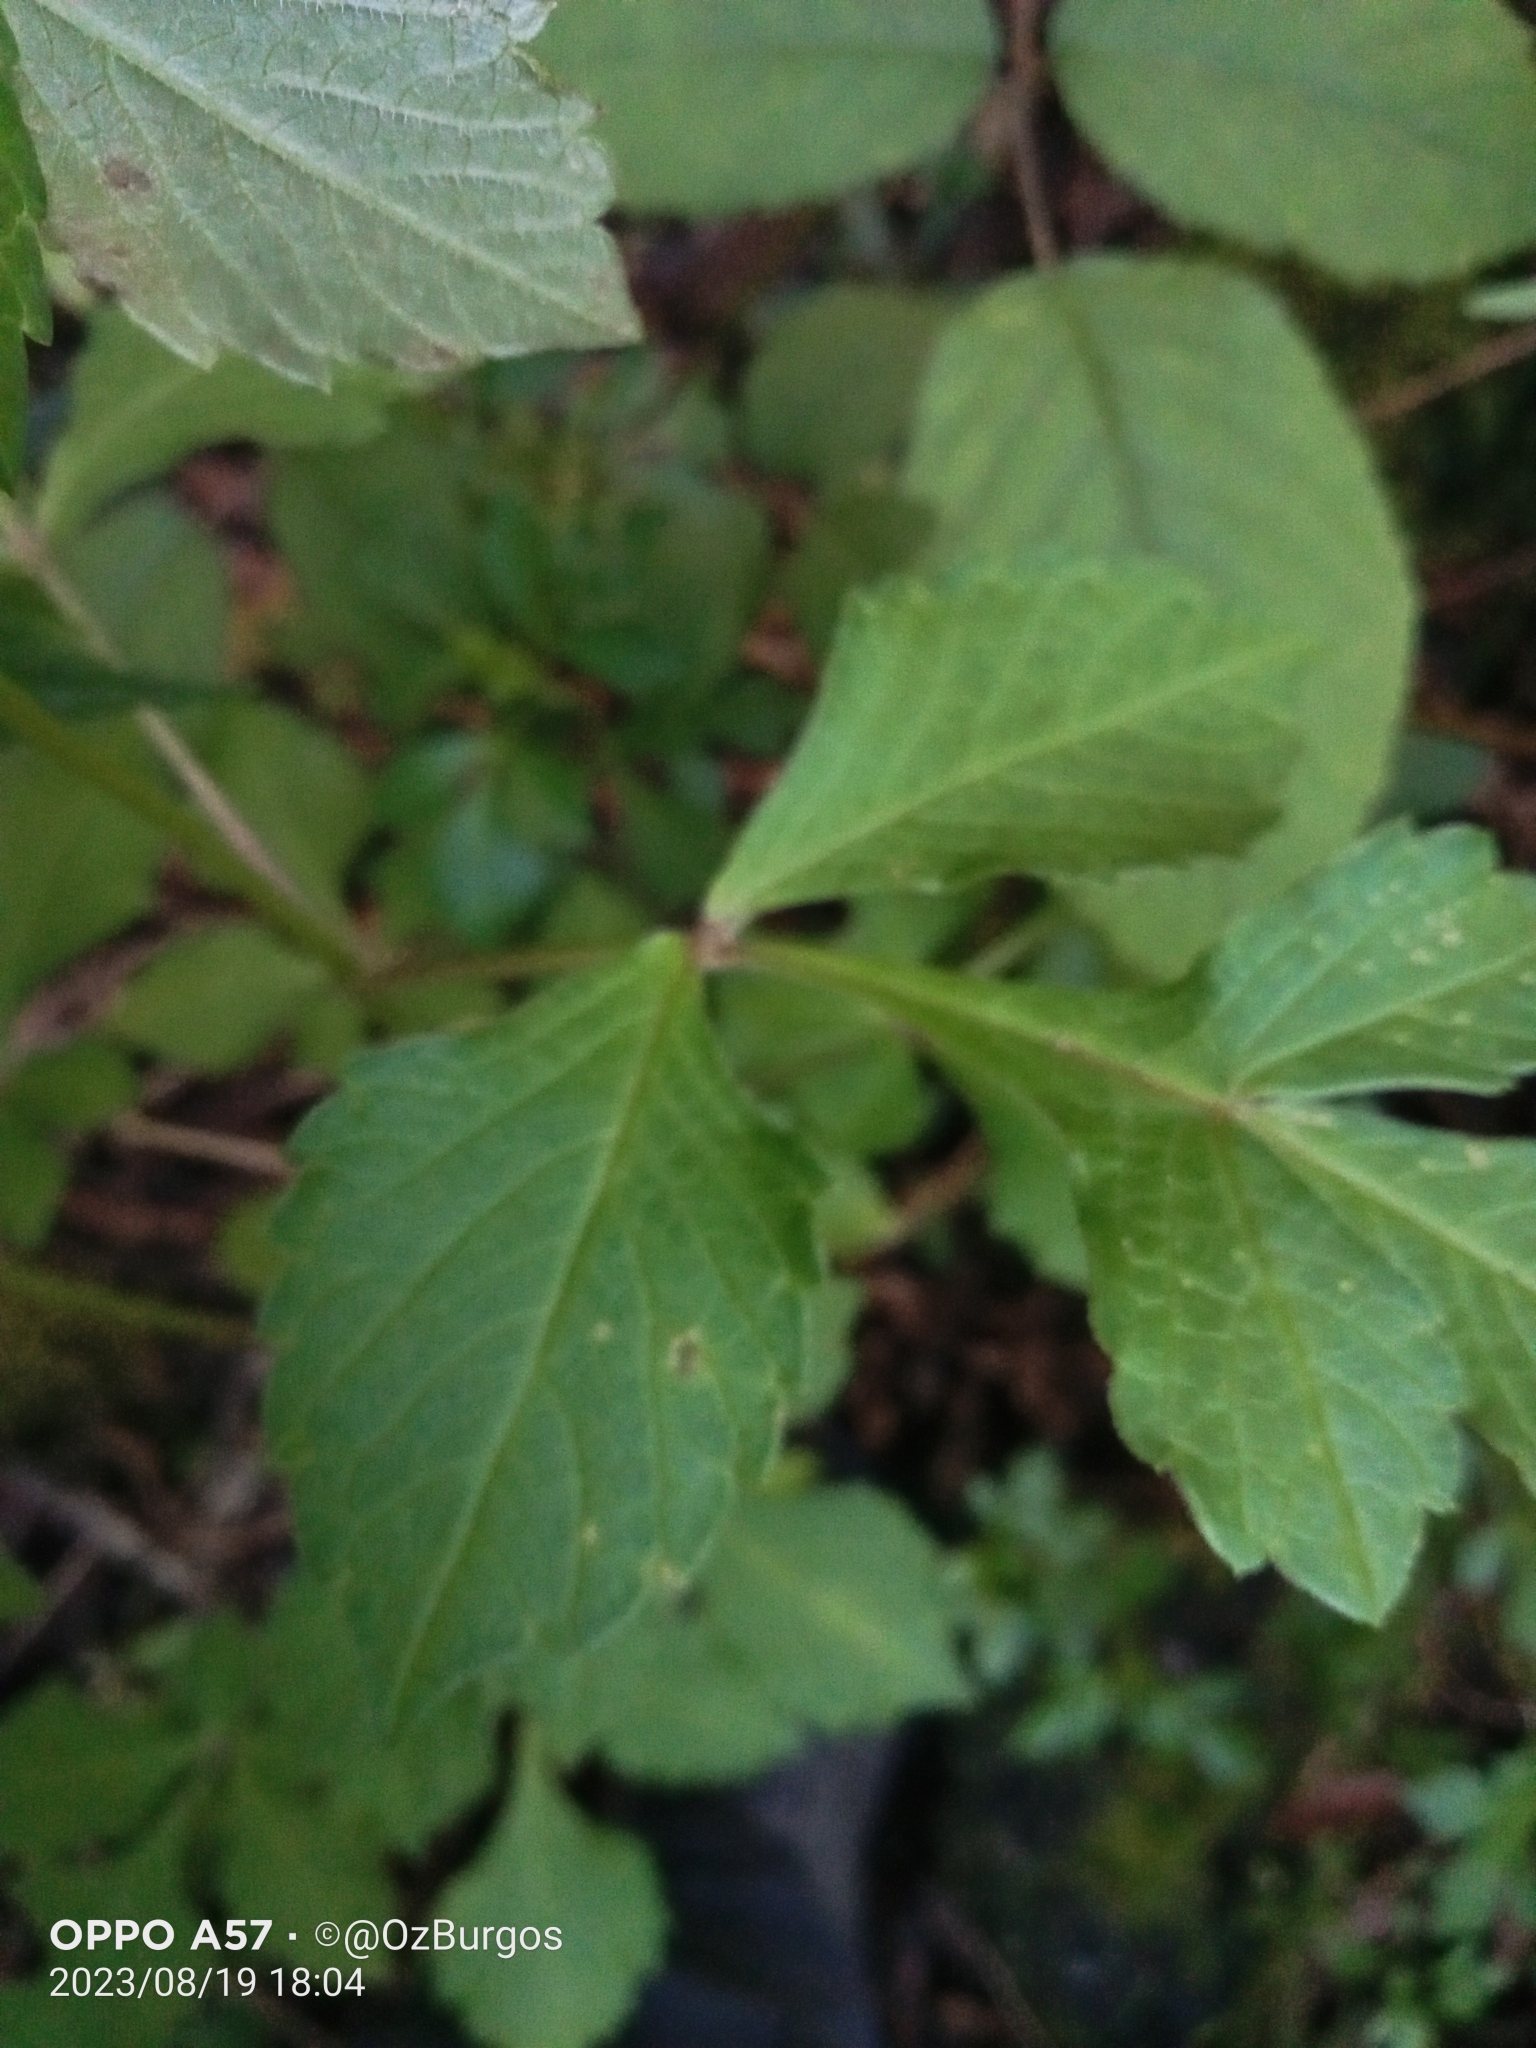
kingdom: Plantae
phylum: Tracheophyta
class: Magnoliopsida
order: Asterales
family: Asteraceae
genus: Dahlia
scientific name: Dahlia australis
